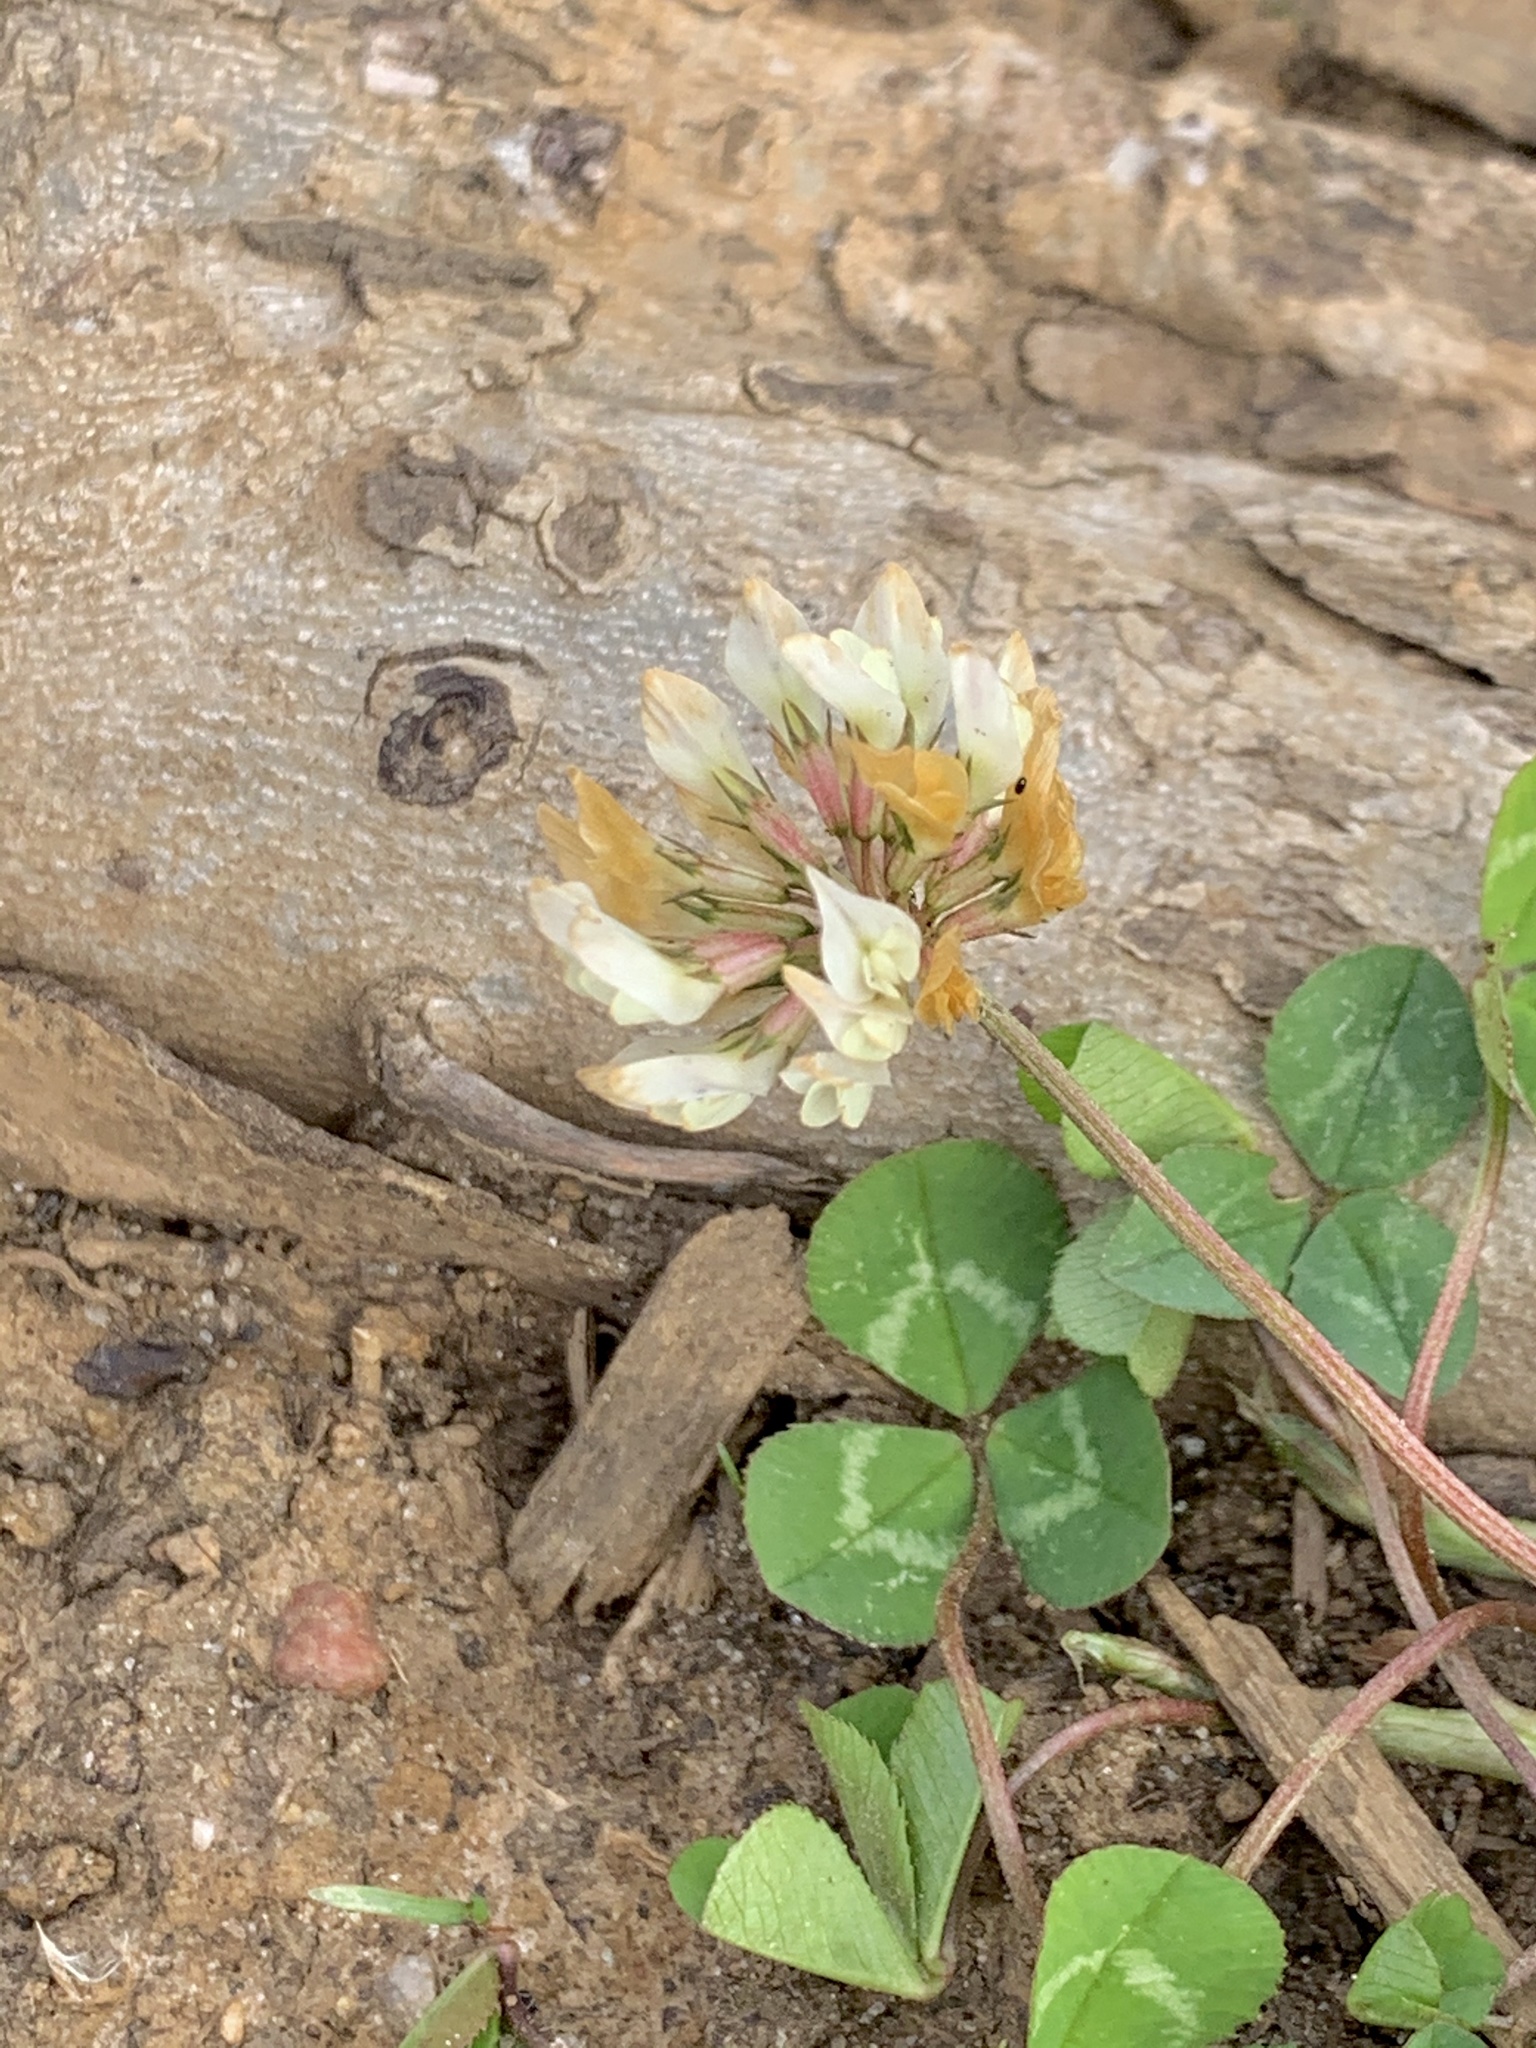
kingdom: Plantae
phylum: Tracheophyta
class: Magnoliopsida
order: Fabales
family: Fabaceae
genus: Trifolium
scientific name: Trifolium repens
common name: White clover
